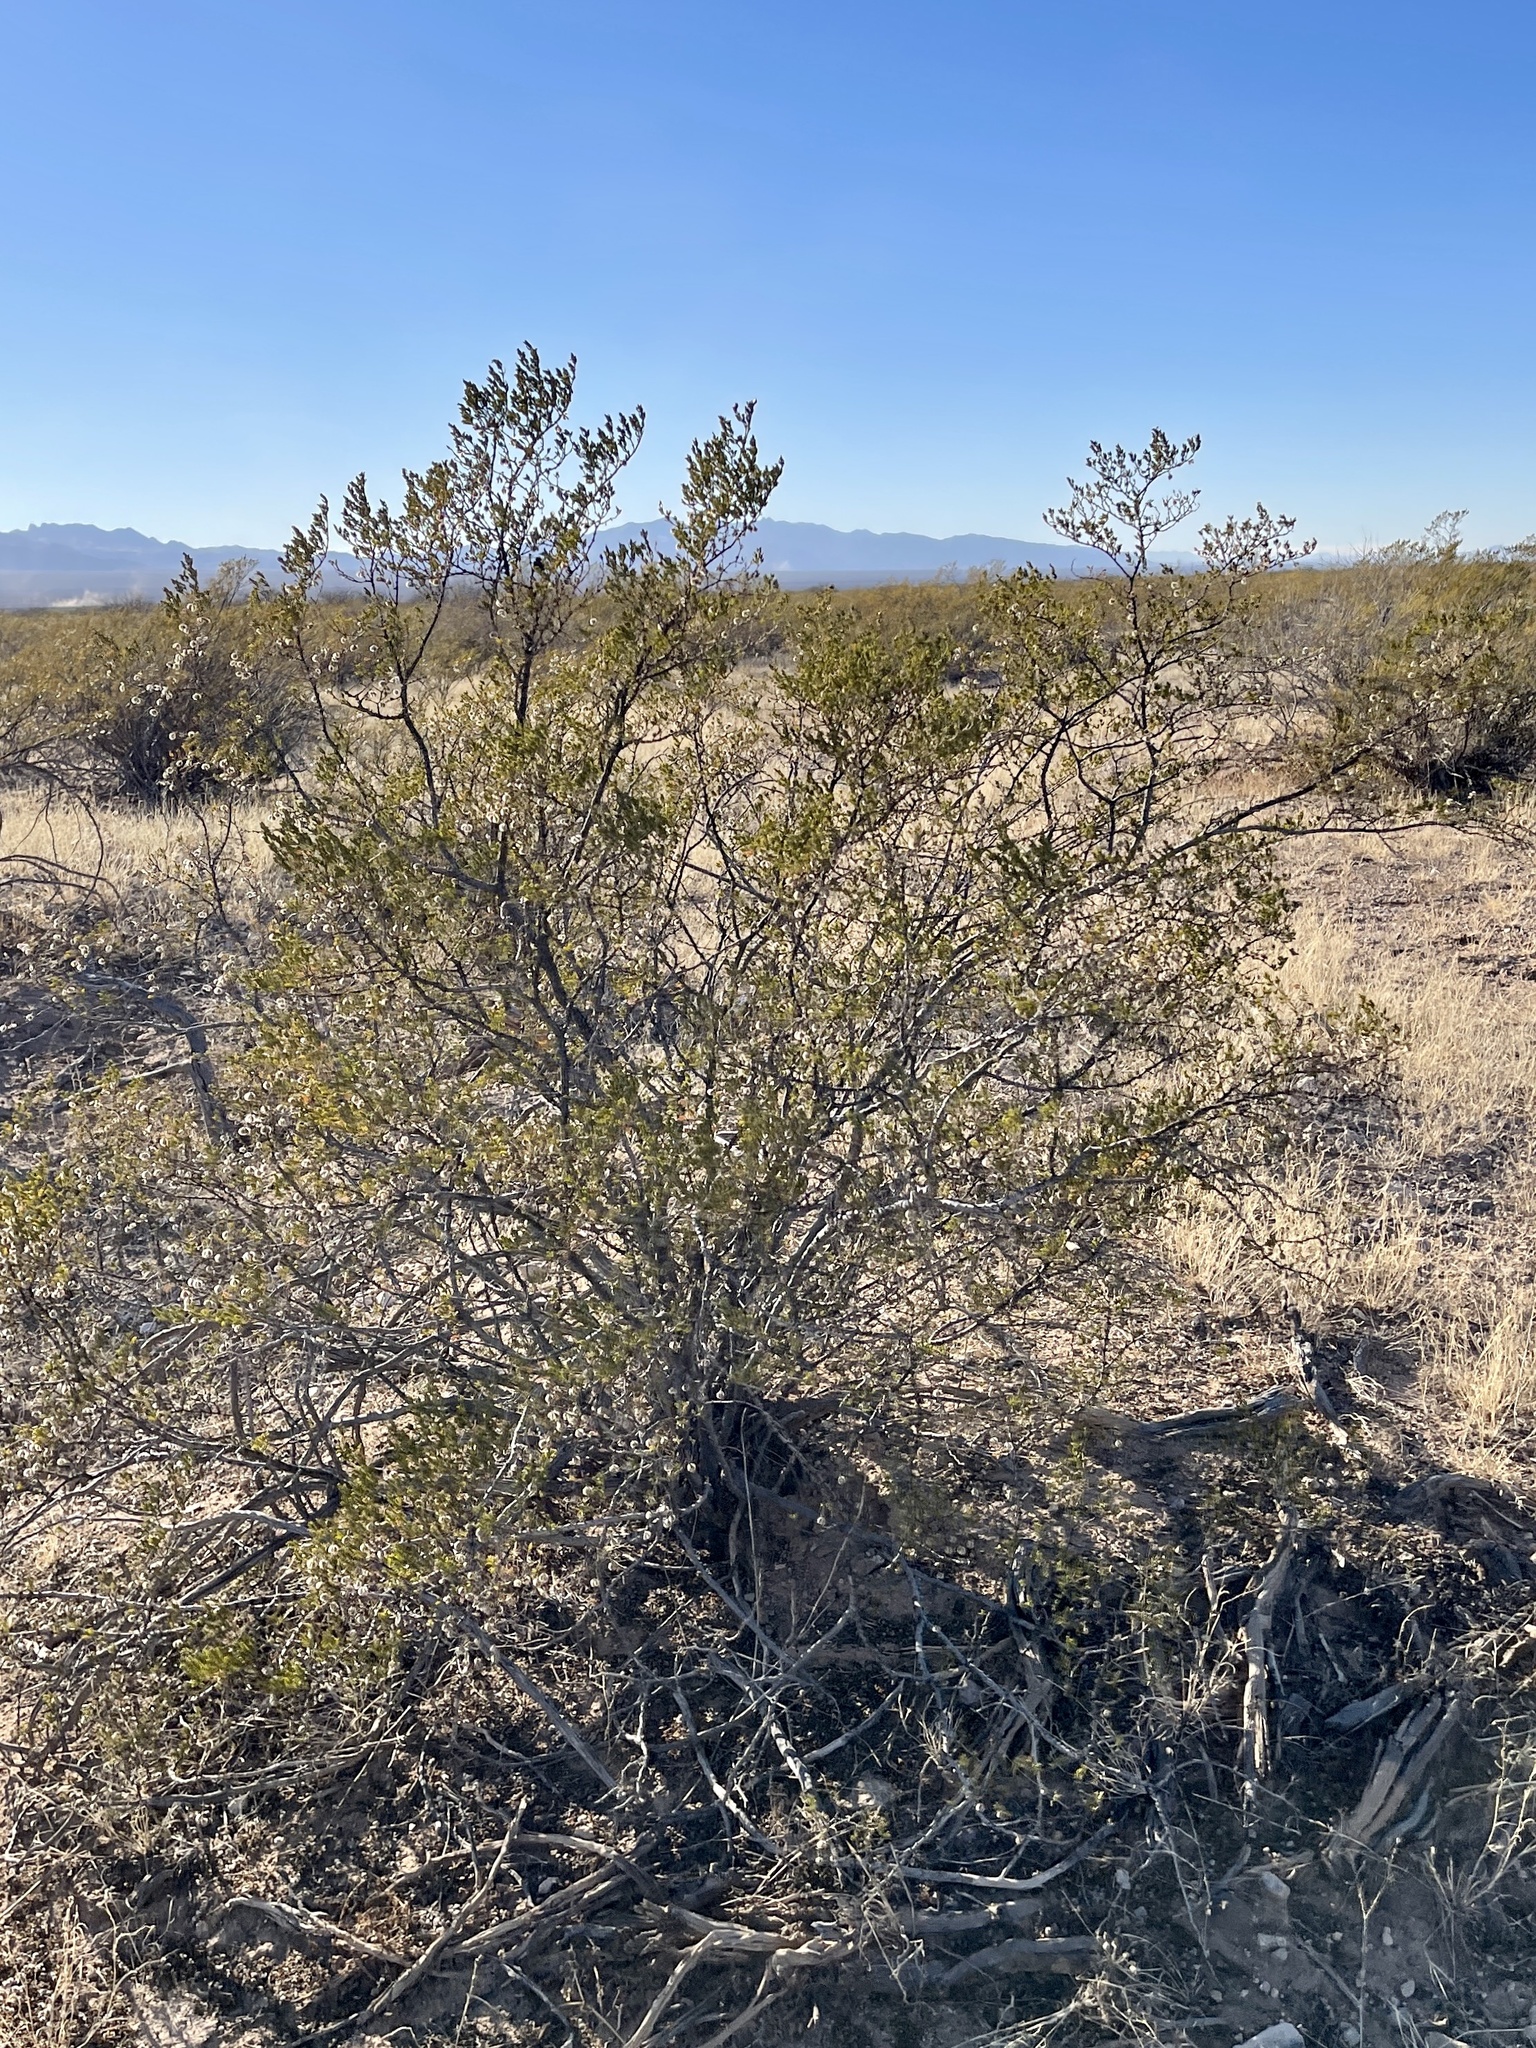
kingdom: Plantae
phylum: Tracheophyta
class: Magnoliopsida
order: Zygophyllales
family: Zygophyllaceae
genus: Larrea
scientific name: Larrea tridentata
